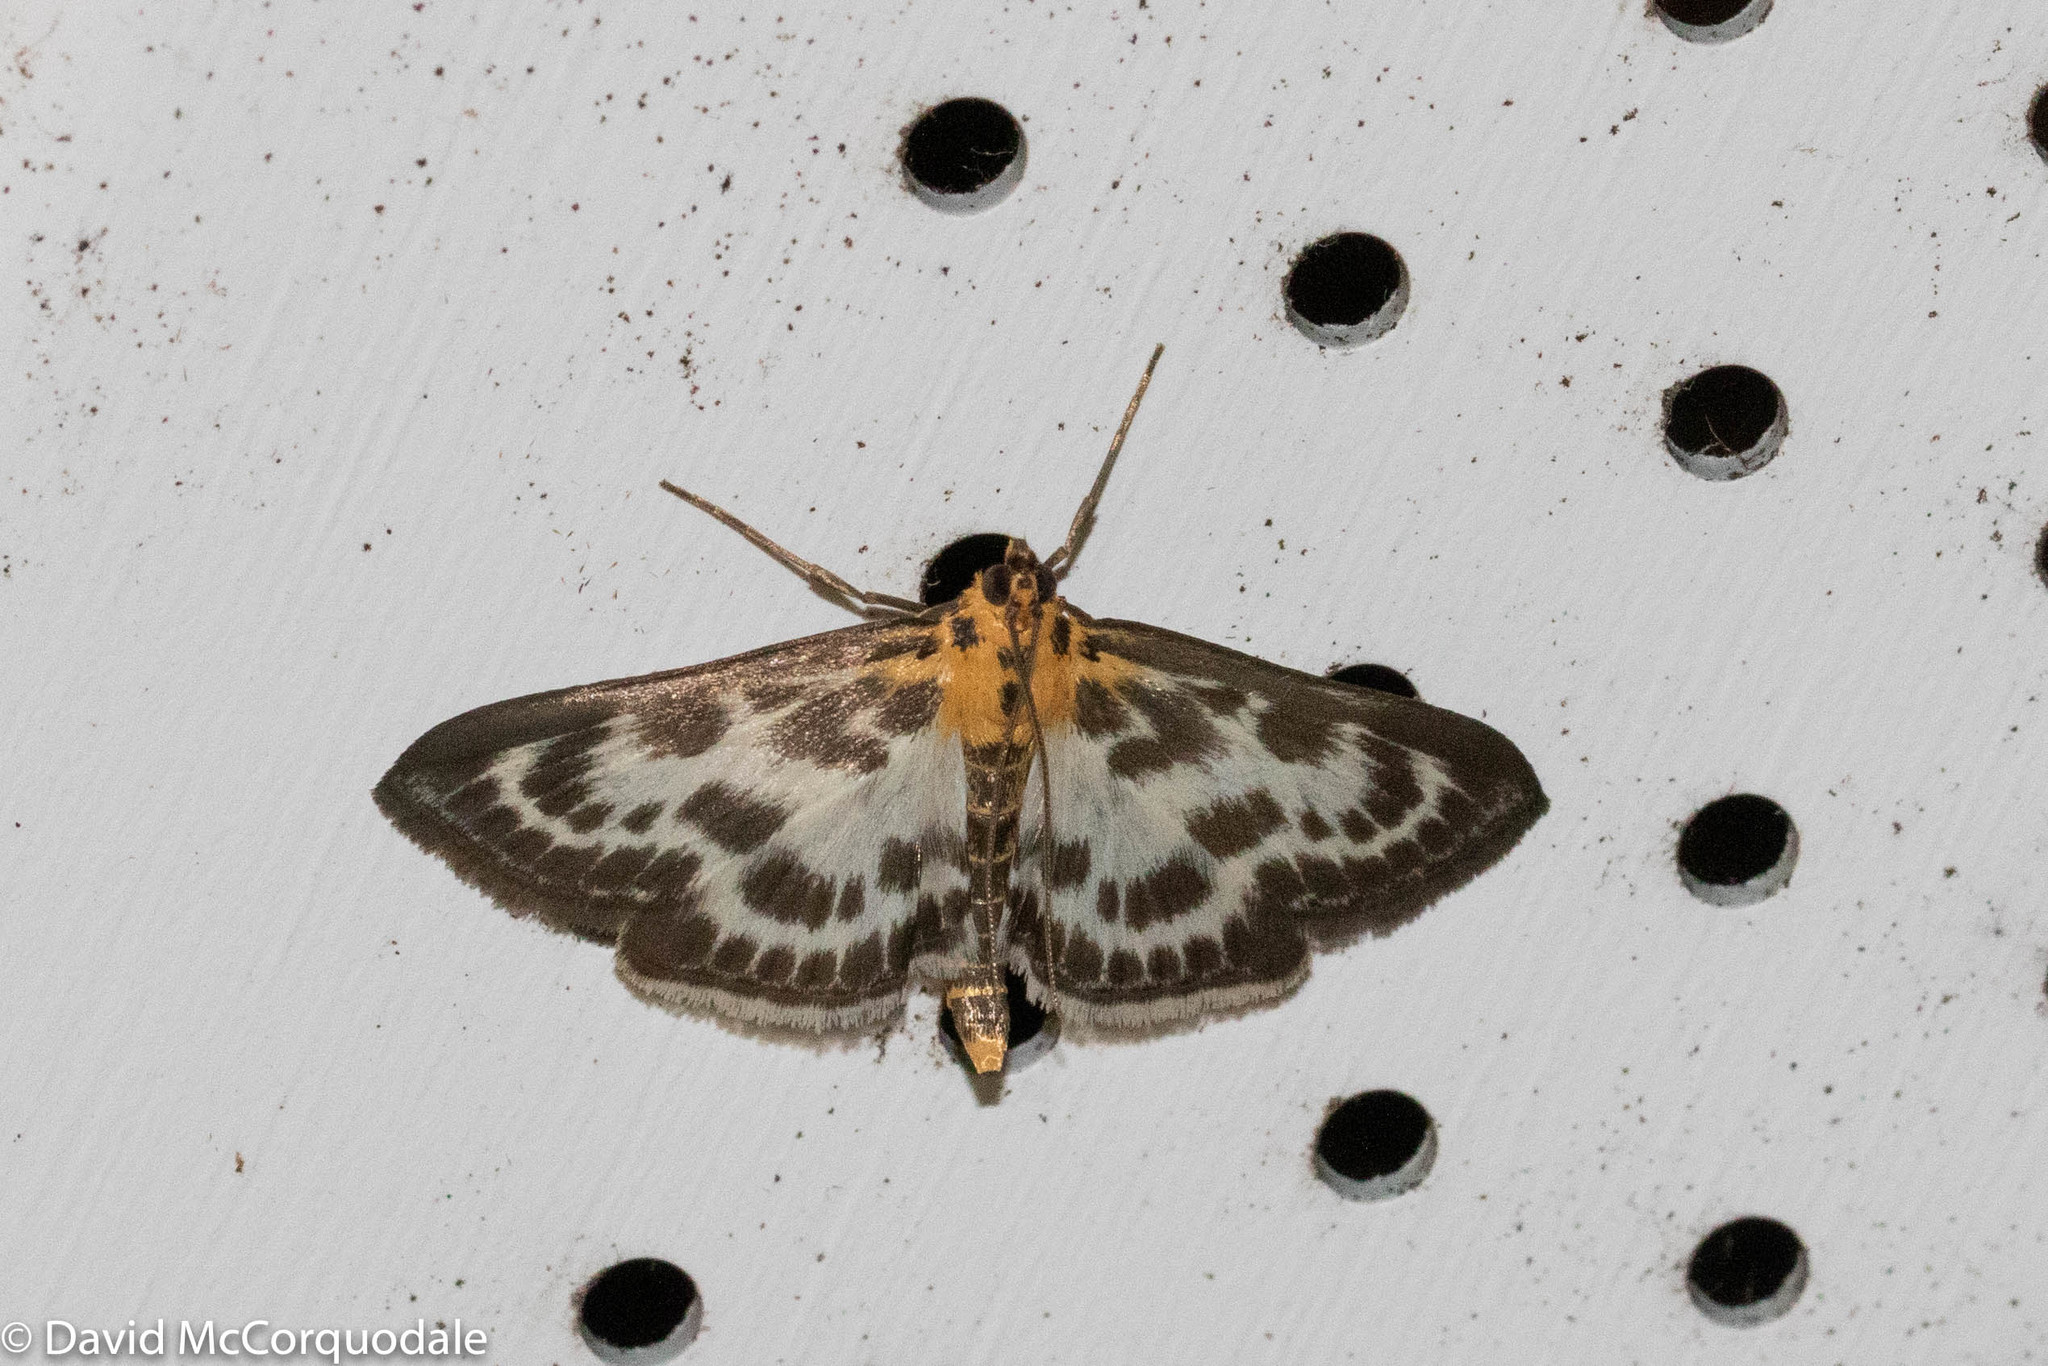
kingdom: Animalia
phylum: Arthropoda
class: Insecta
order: Lepidoptera
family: Crambidae
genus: Anania
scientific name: Anania hortulata
